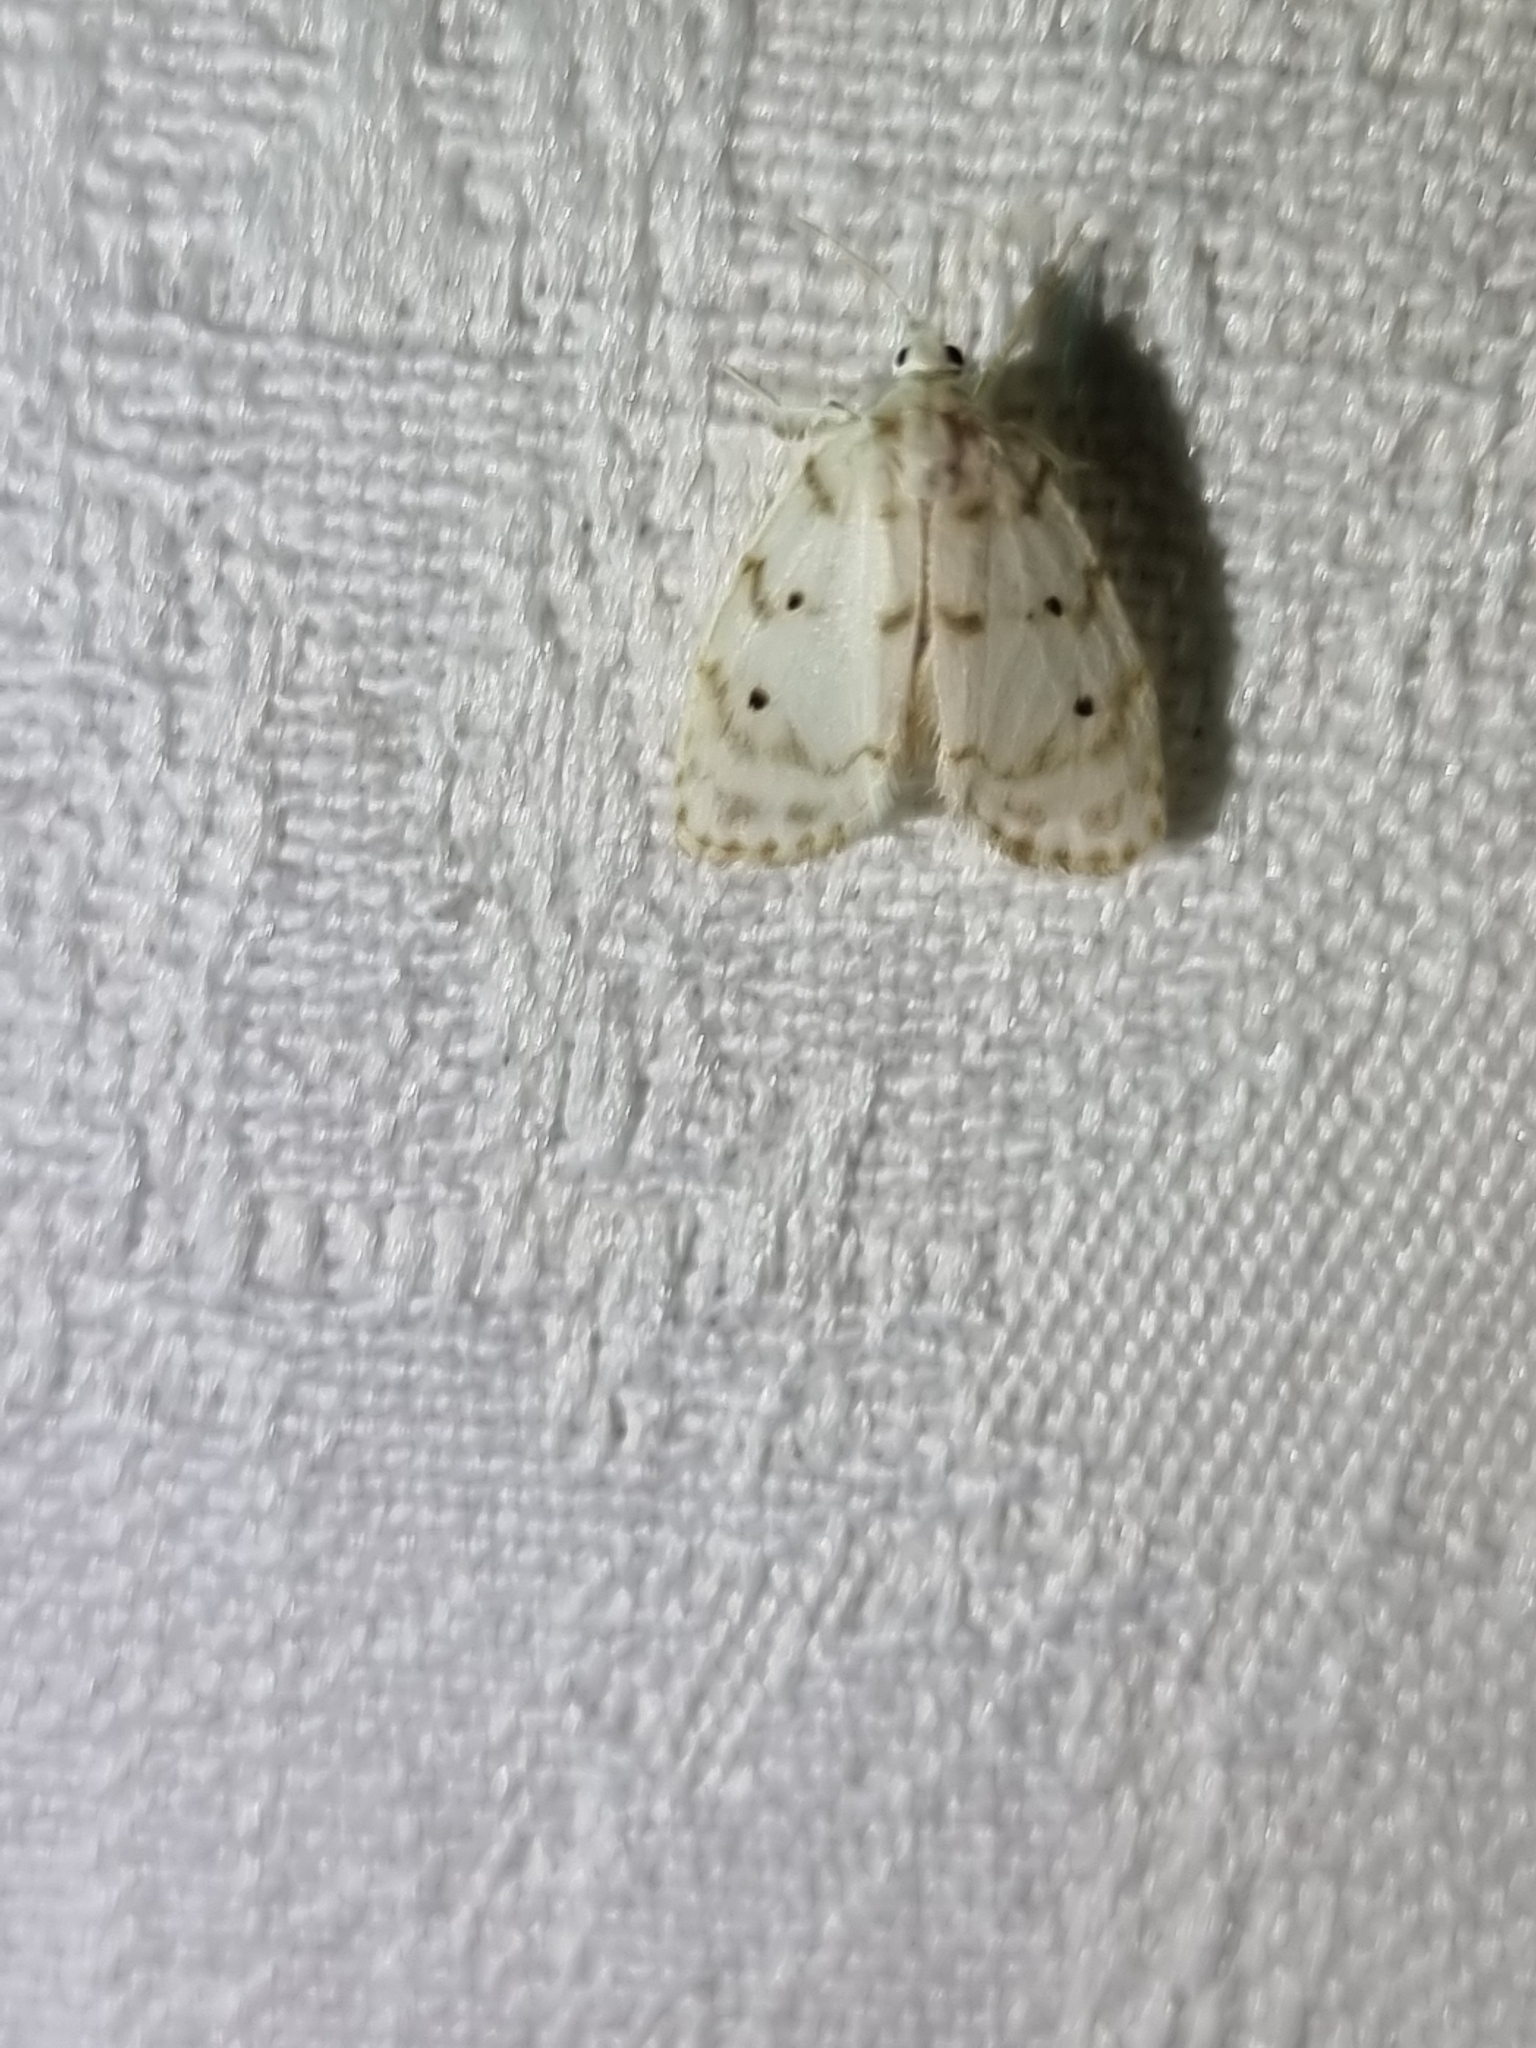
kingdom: Animalia
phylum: Arthropoda
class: Insecta
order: Lepidoptera
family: Erebidae
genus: Schistophleps
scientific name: Schistophleps albida
